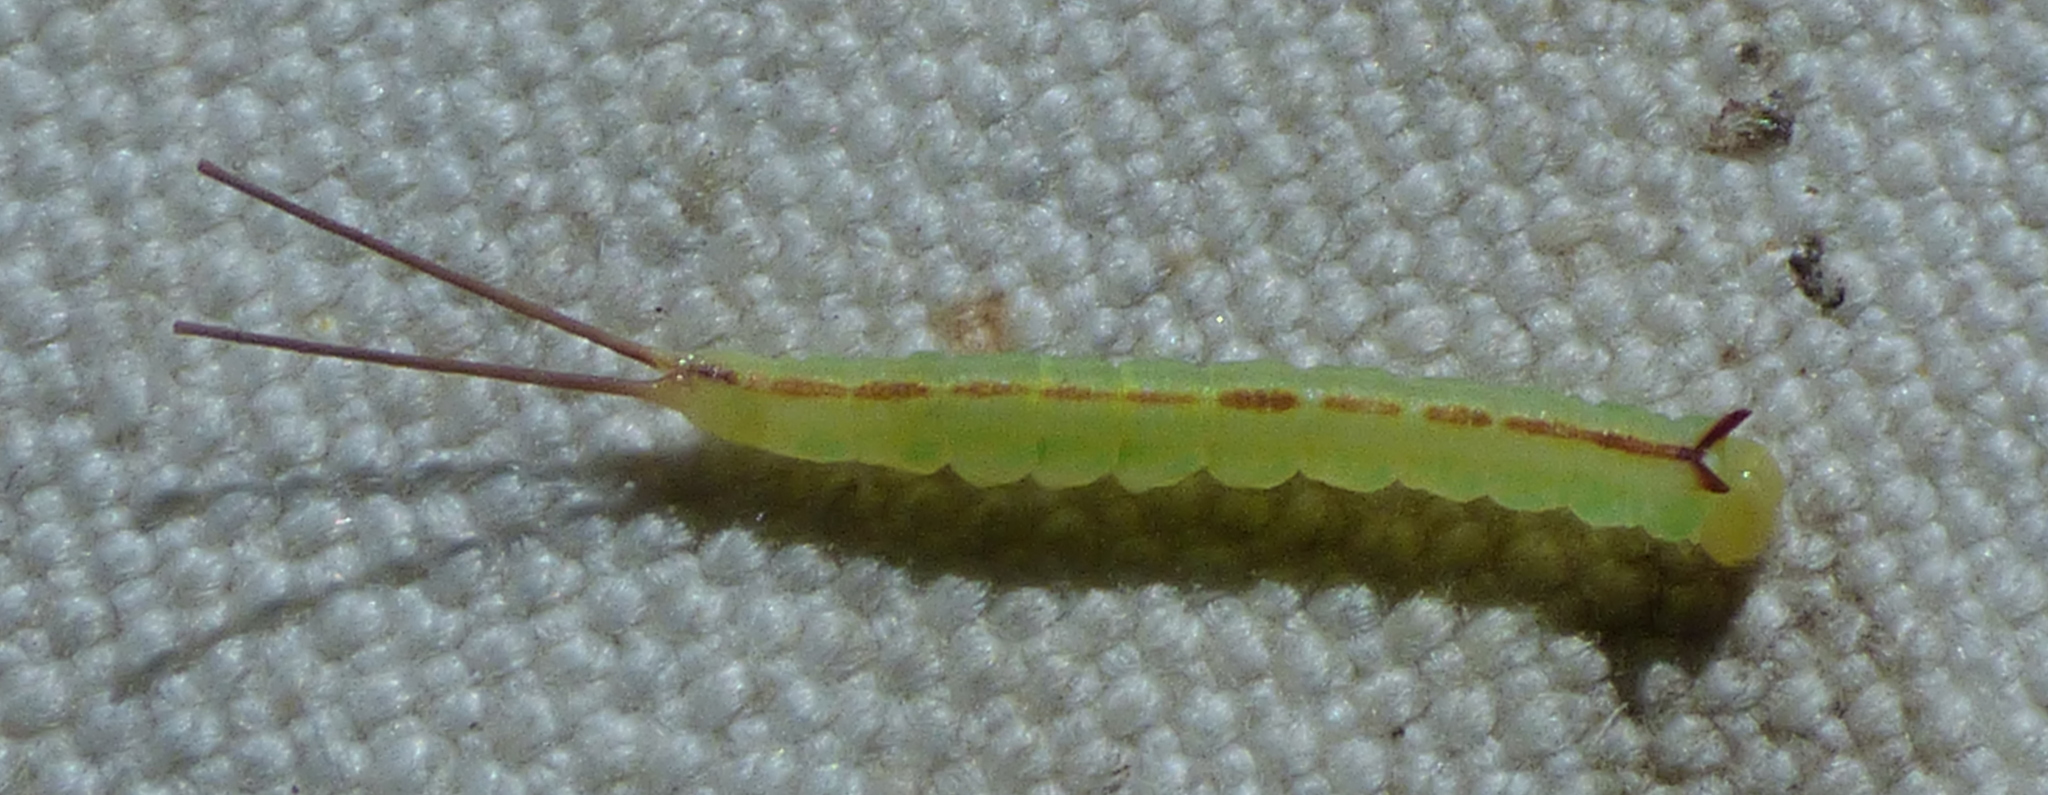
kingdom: Animalia
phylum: Arthropoda
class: Insecta
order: Lepidoptera
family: Notodontidae
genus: Misogada
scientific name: Misogada unicolor
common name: Drab prominent
